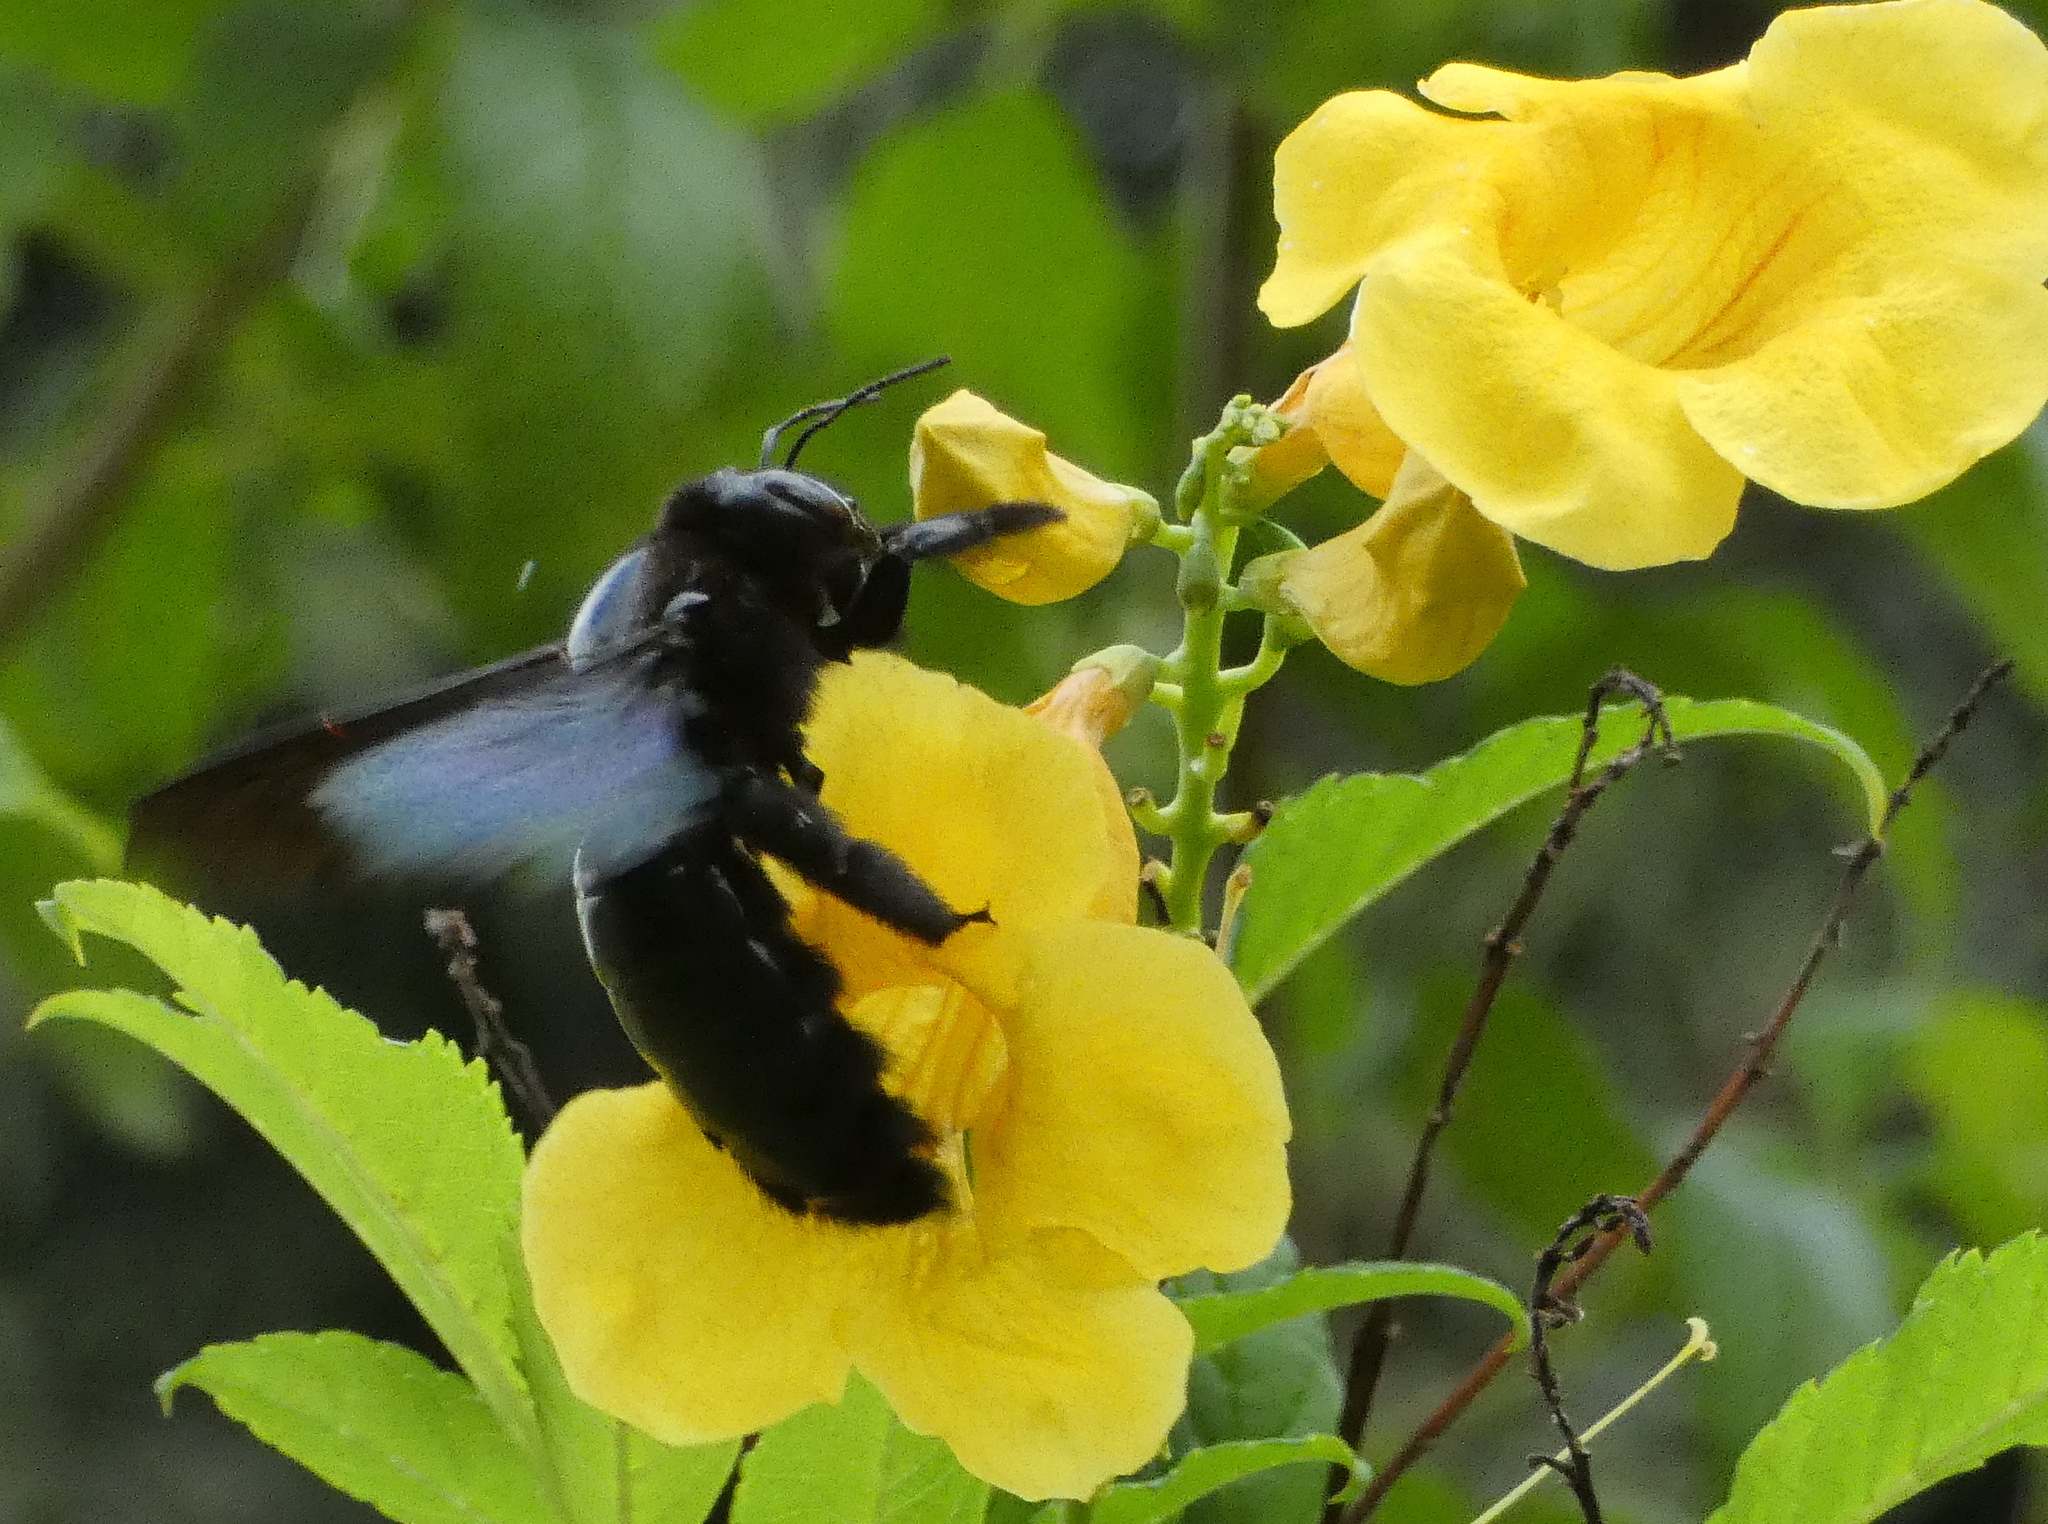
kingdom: Animalia
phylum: Arthropoda
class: Insecta
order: Hymenoptera
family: Apidae
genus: Xylocopa
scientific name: Xylocopa frontalis
